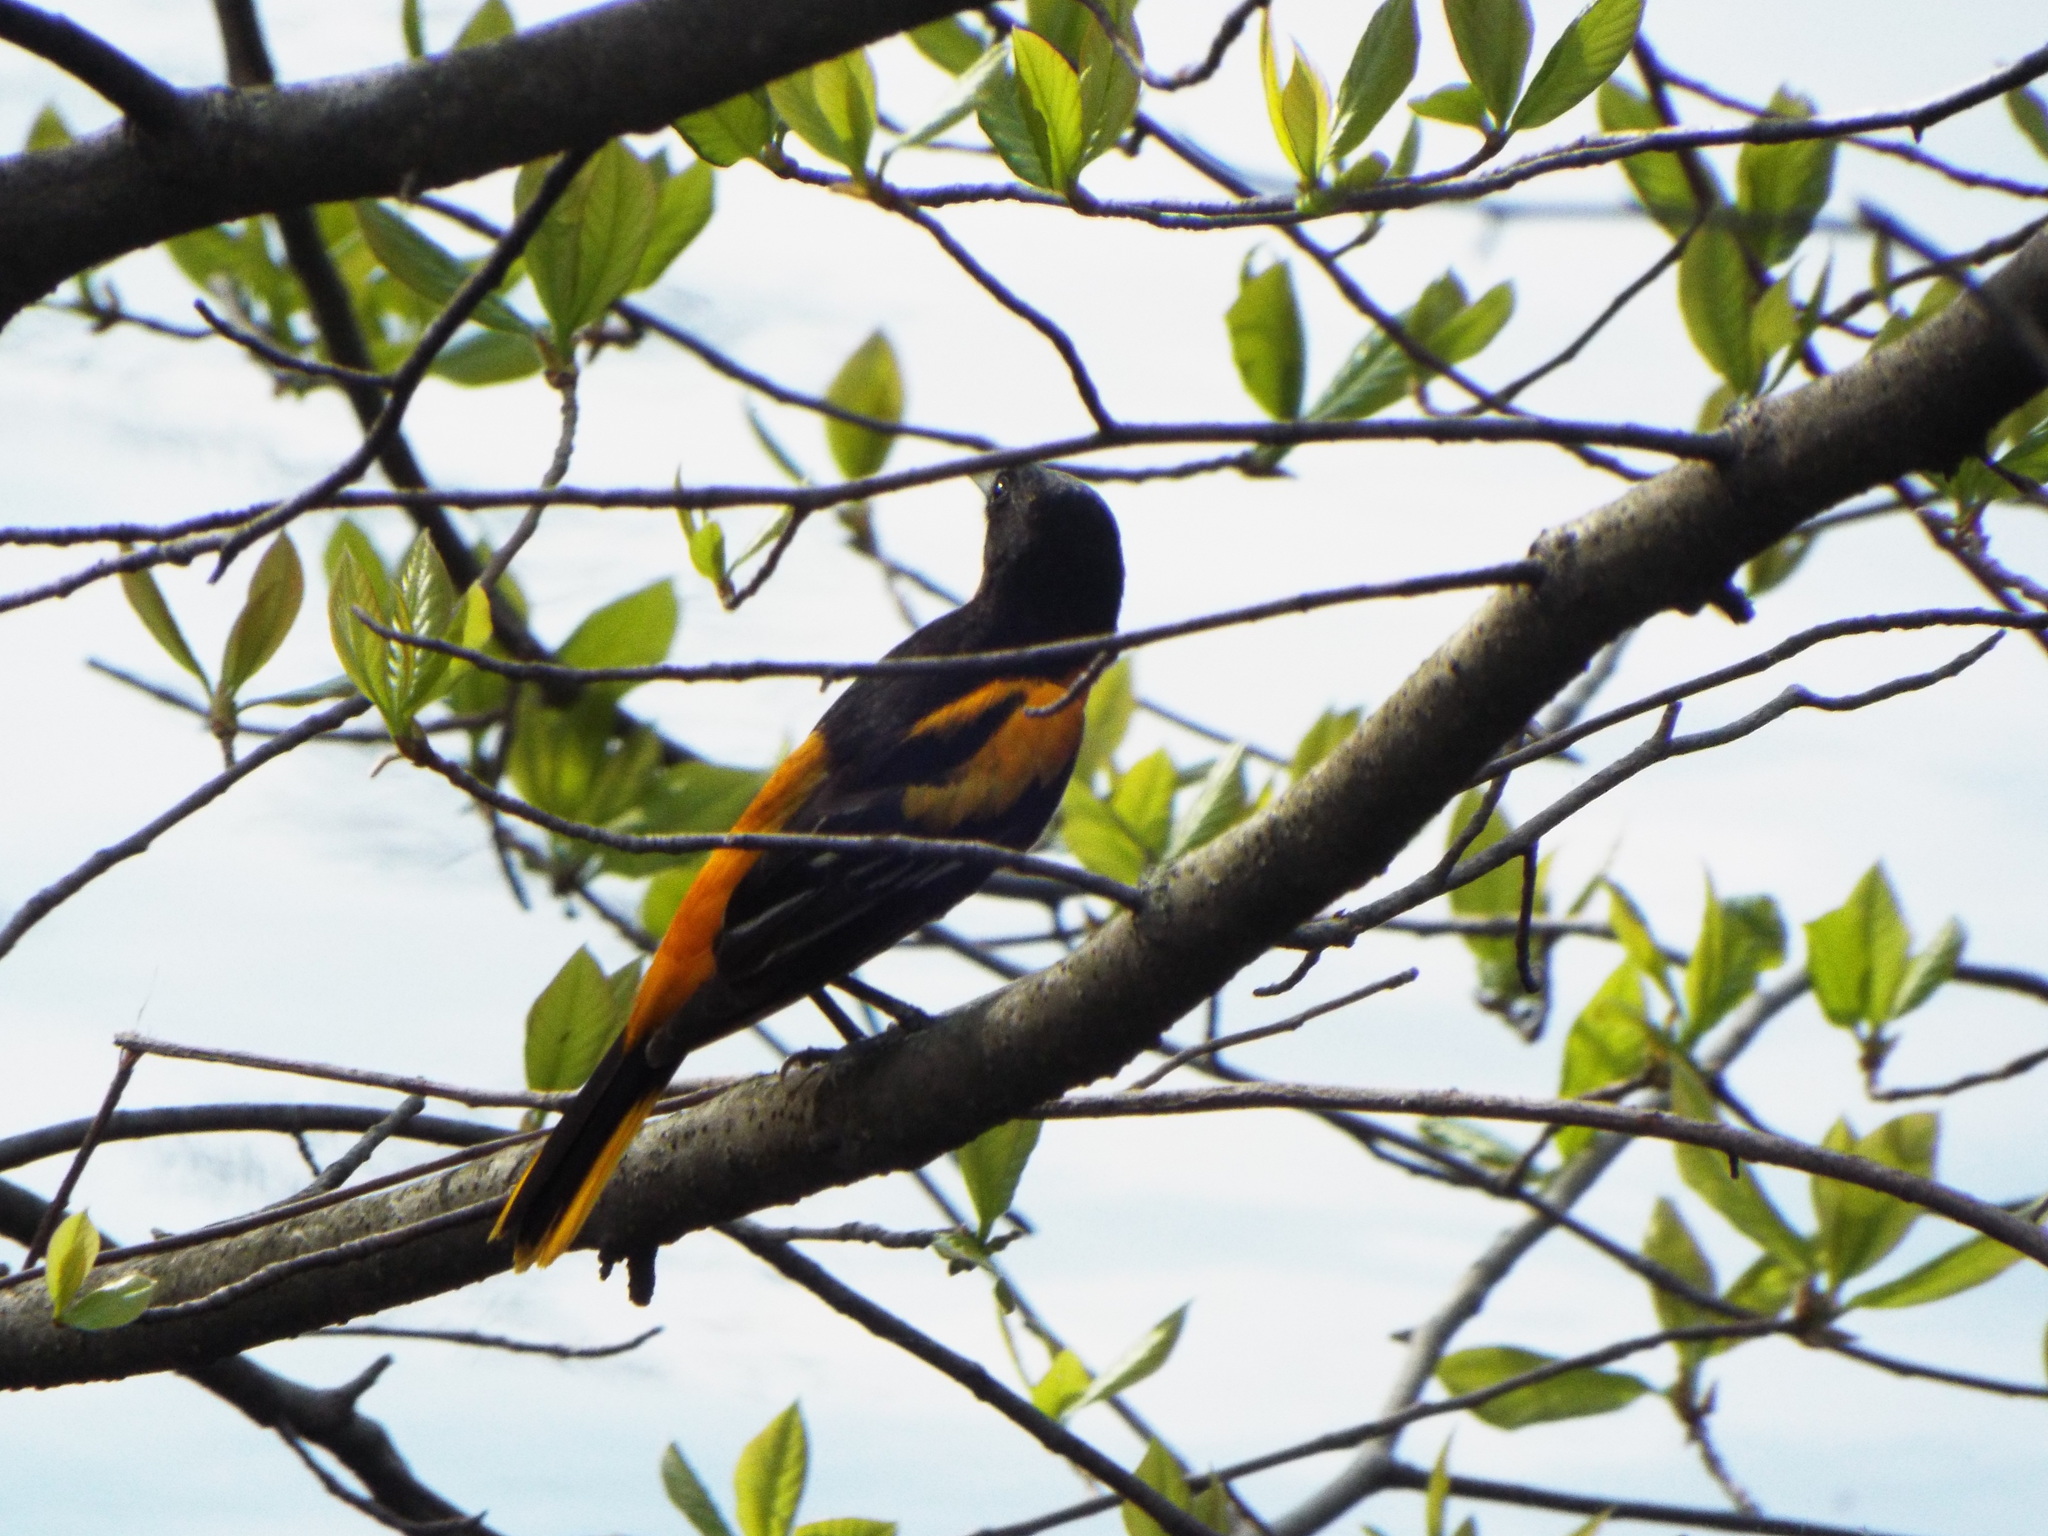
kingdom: Animalia
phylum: Chordata
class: Aves
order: Passeriformes
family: Icteridae
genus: Icterus
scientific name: Icterus galbula
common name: Baltimore oriole
